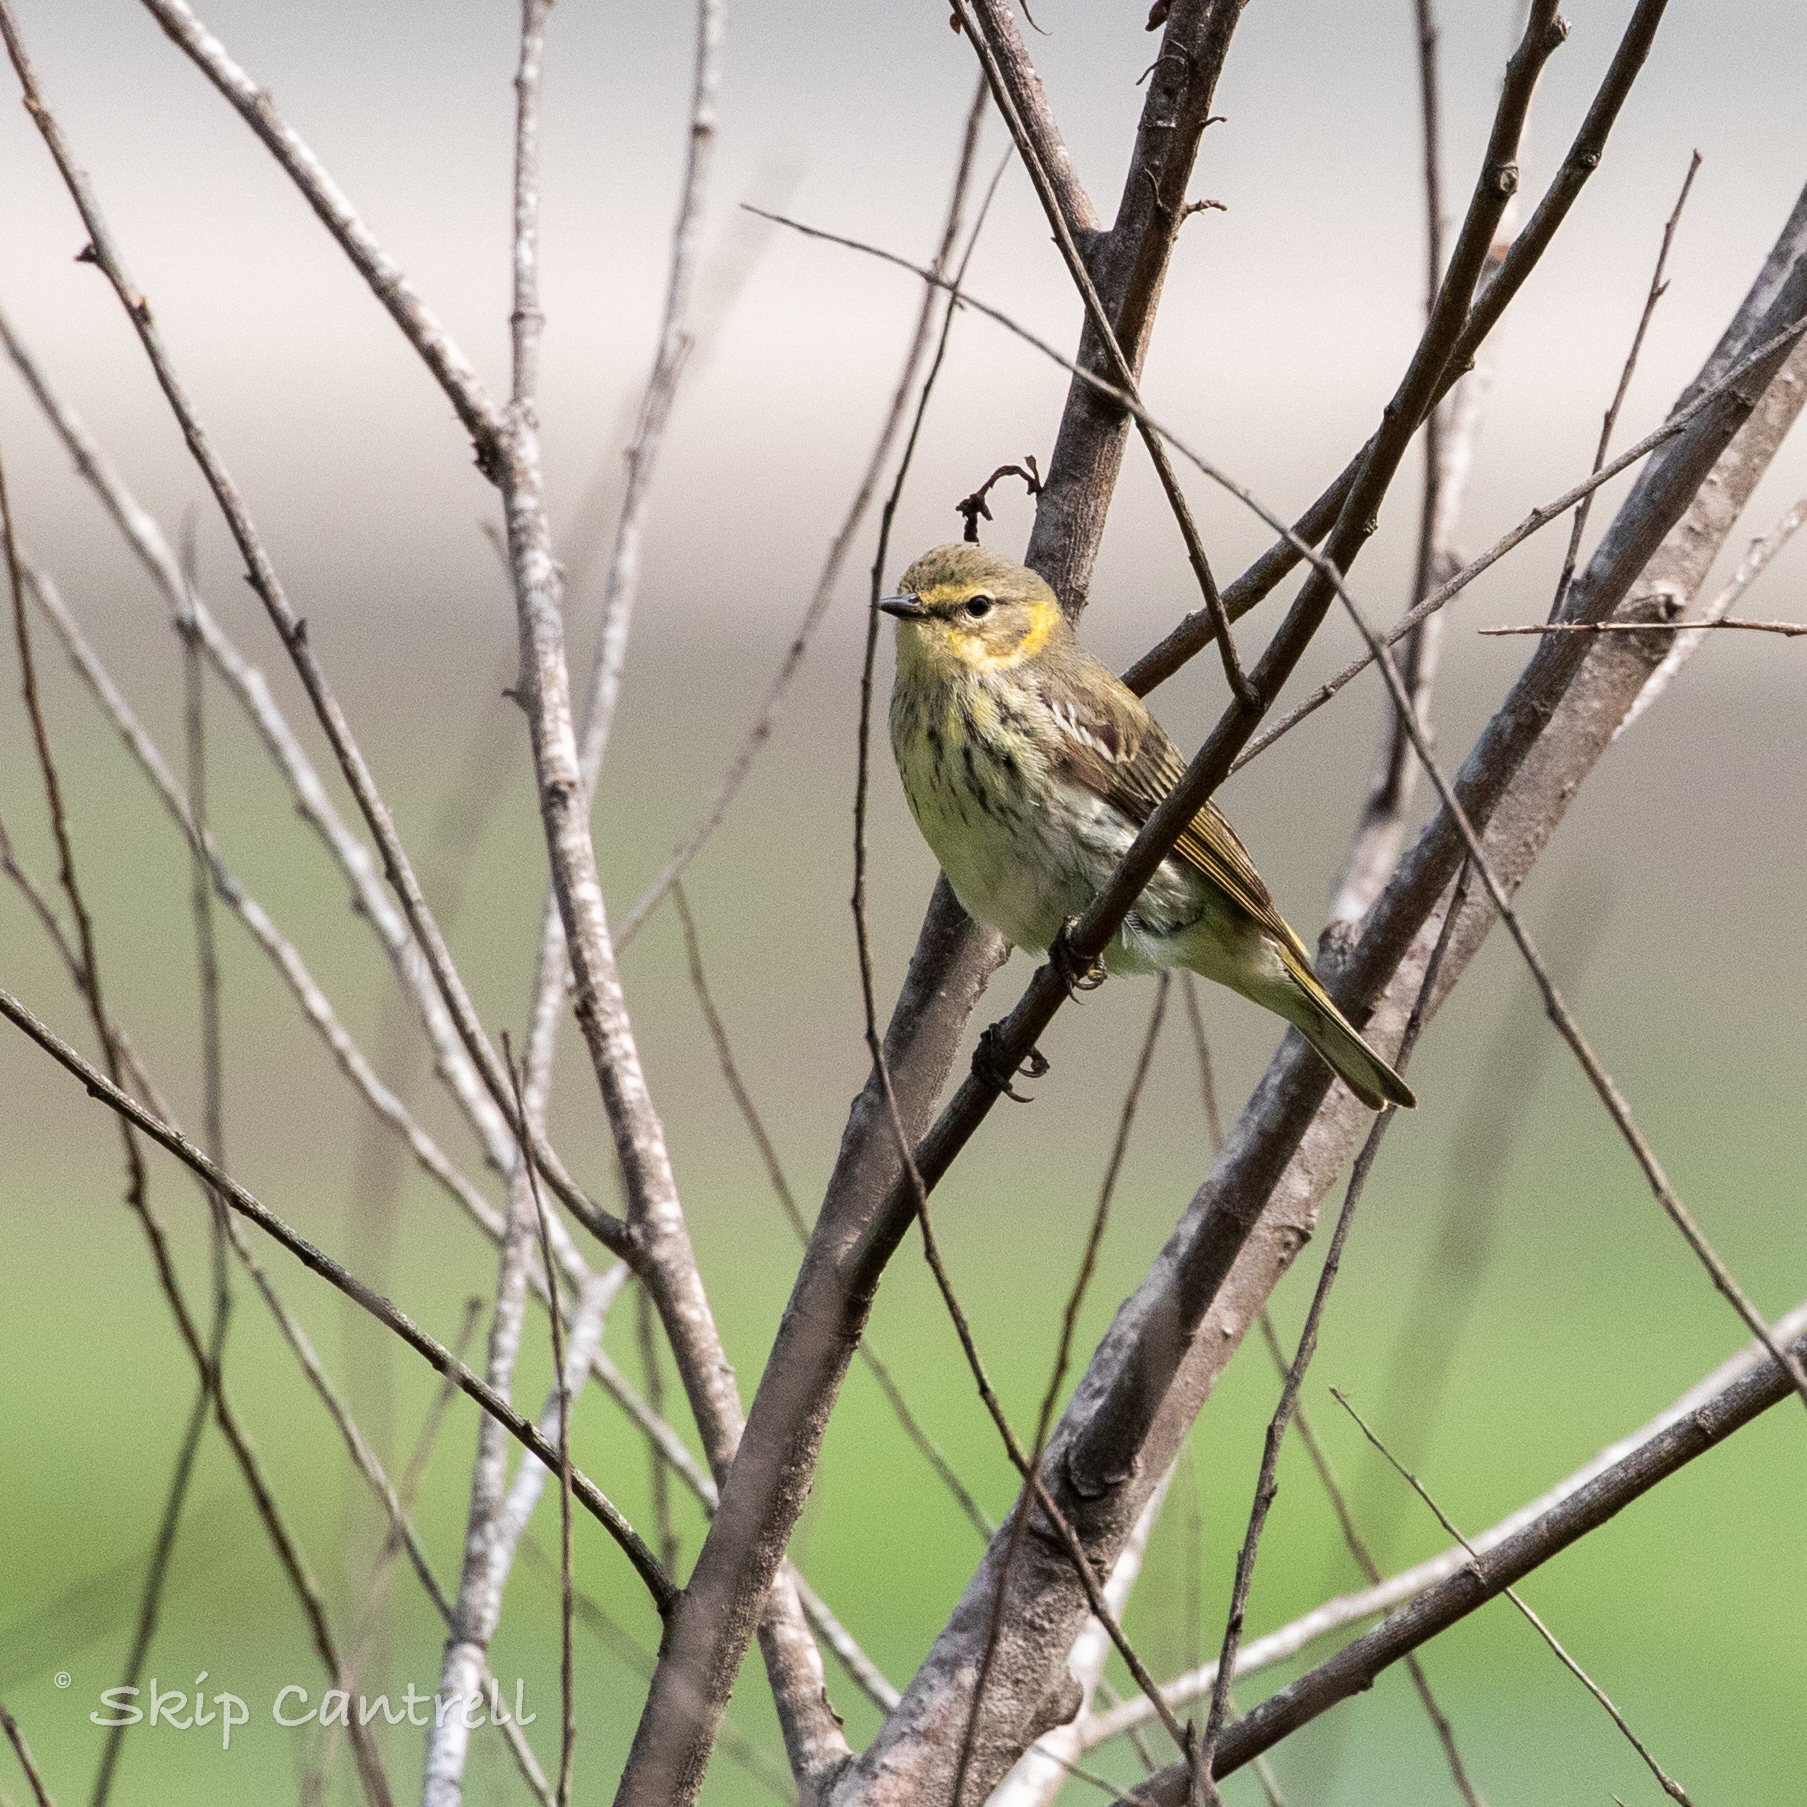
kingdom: Animalia
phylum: Chordata
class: Aves
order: Passeriformes
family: Parulidae
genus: Setophaga
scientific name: Setophaga tigrina
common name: Cape may warbler
